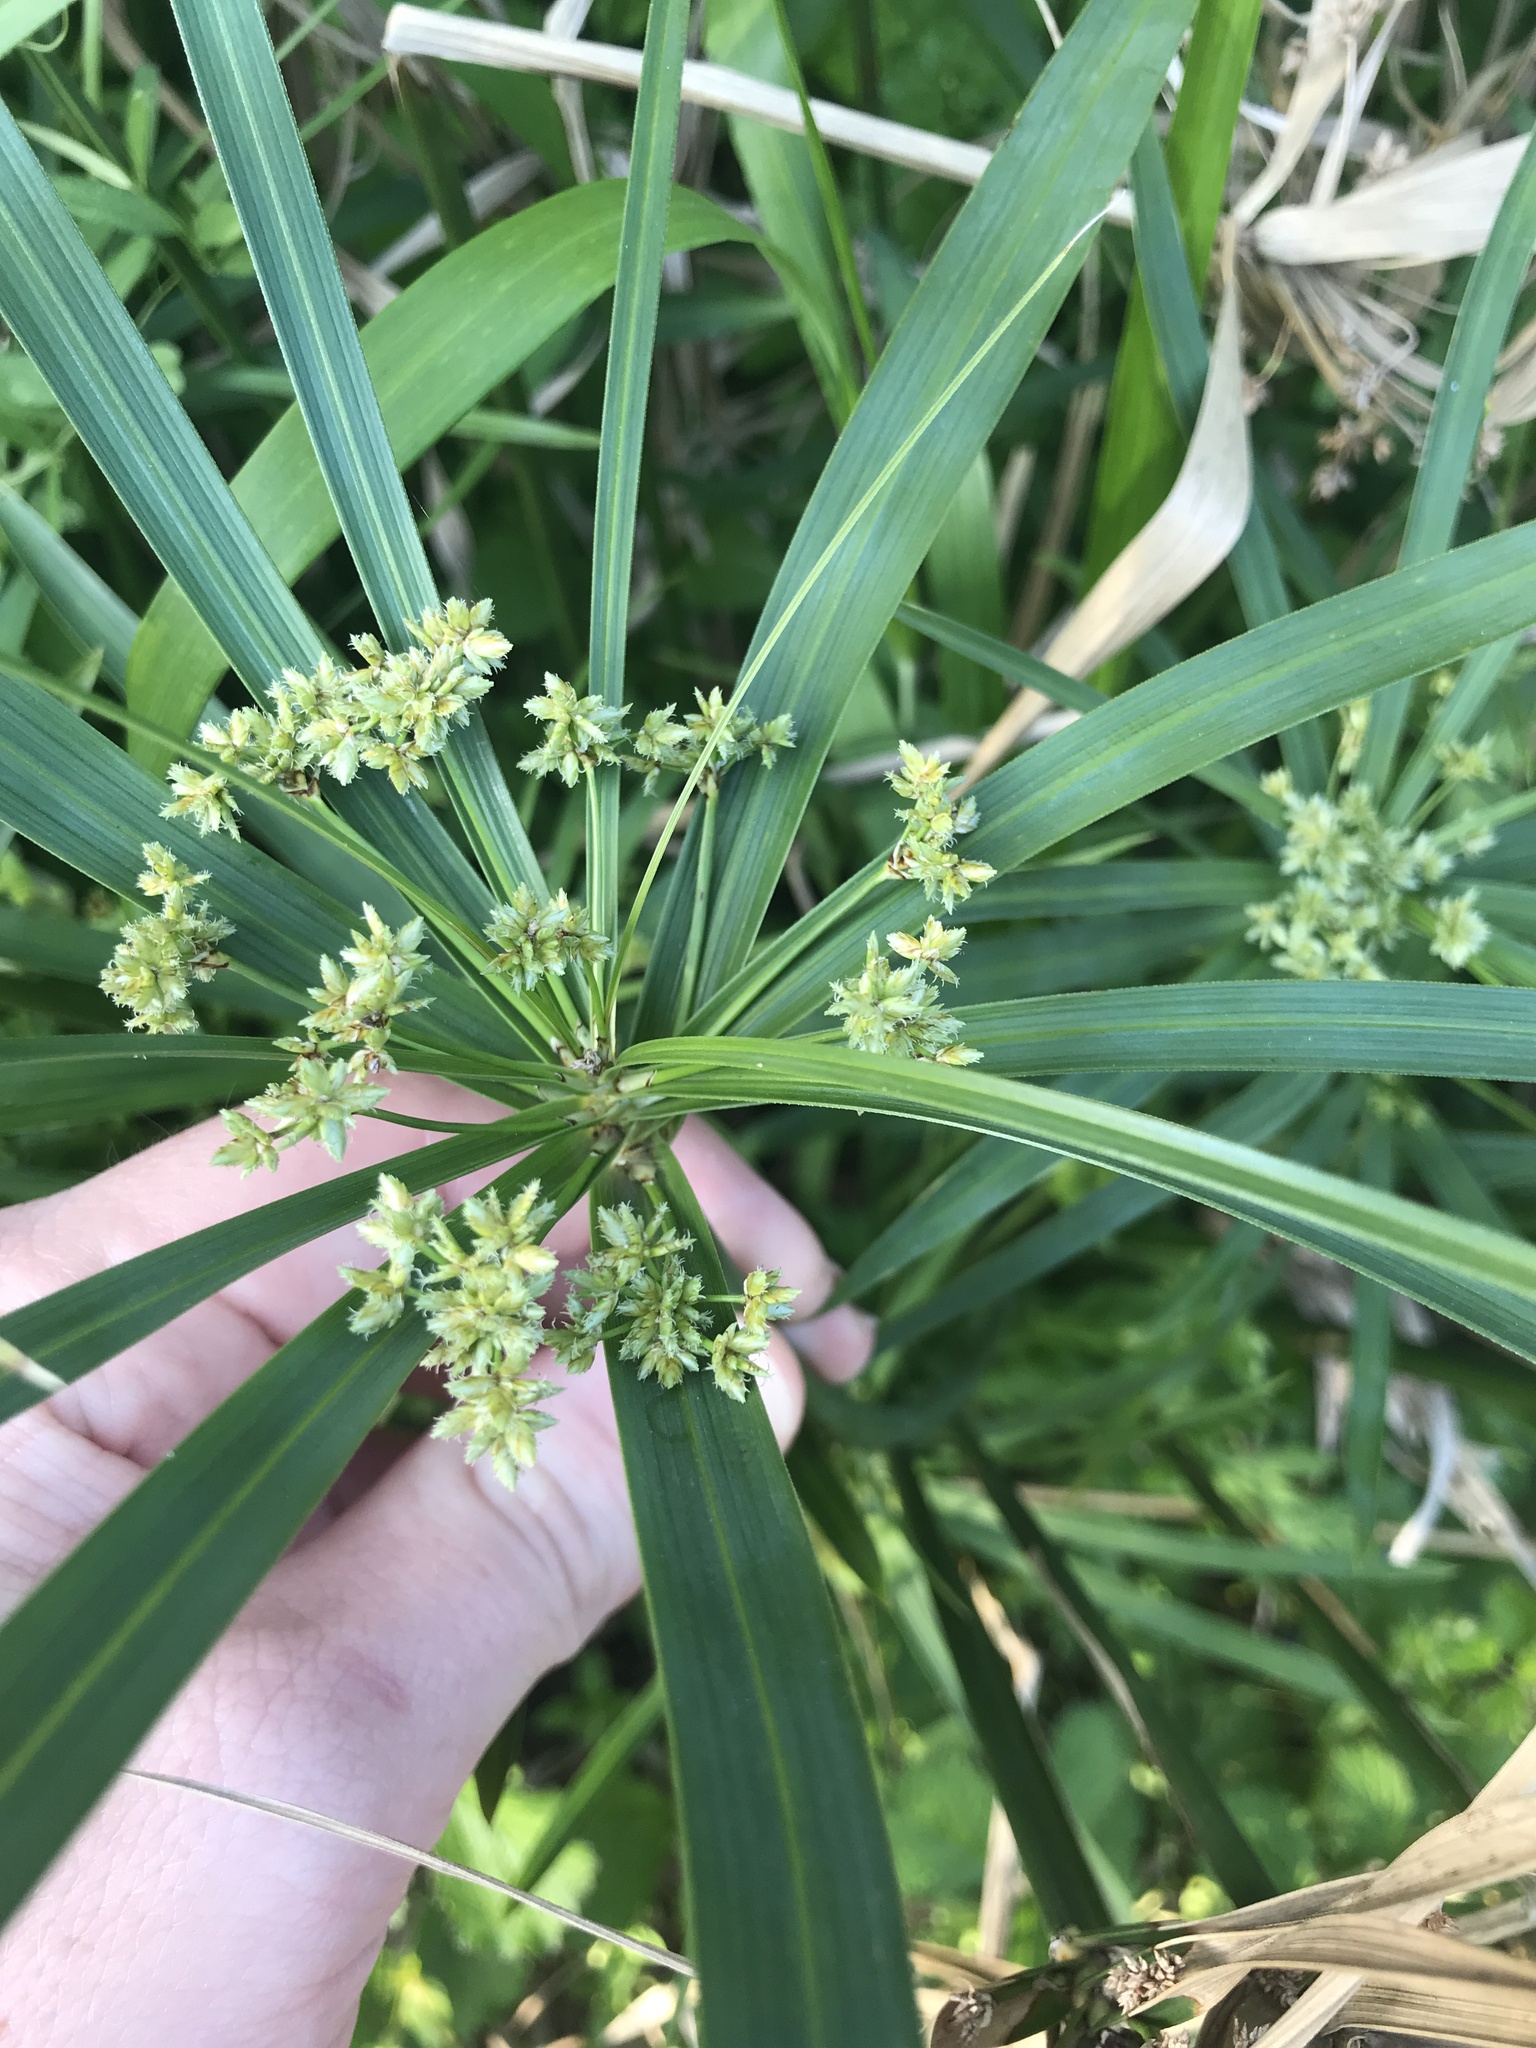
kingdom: Plantae
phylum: Tracheophyta
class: Liliopsida
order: Poales
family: Cyperaceae
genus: Cyperus
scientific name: Cyperus alternifolius
